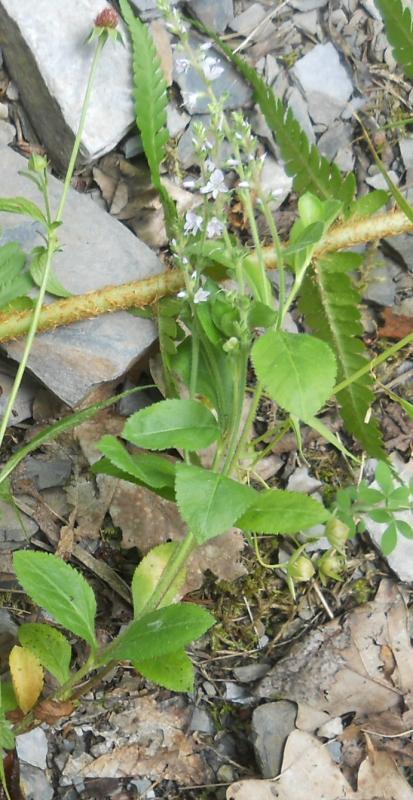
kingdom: Plantae
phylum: Tracheophyta
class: Magnoliopsida
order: Lamiales
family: Plantaginaceae
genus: Veronica
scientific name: Veronica officinalis
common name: Common speedwell
